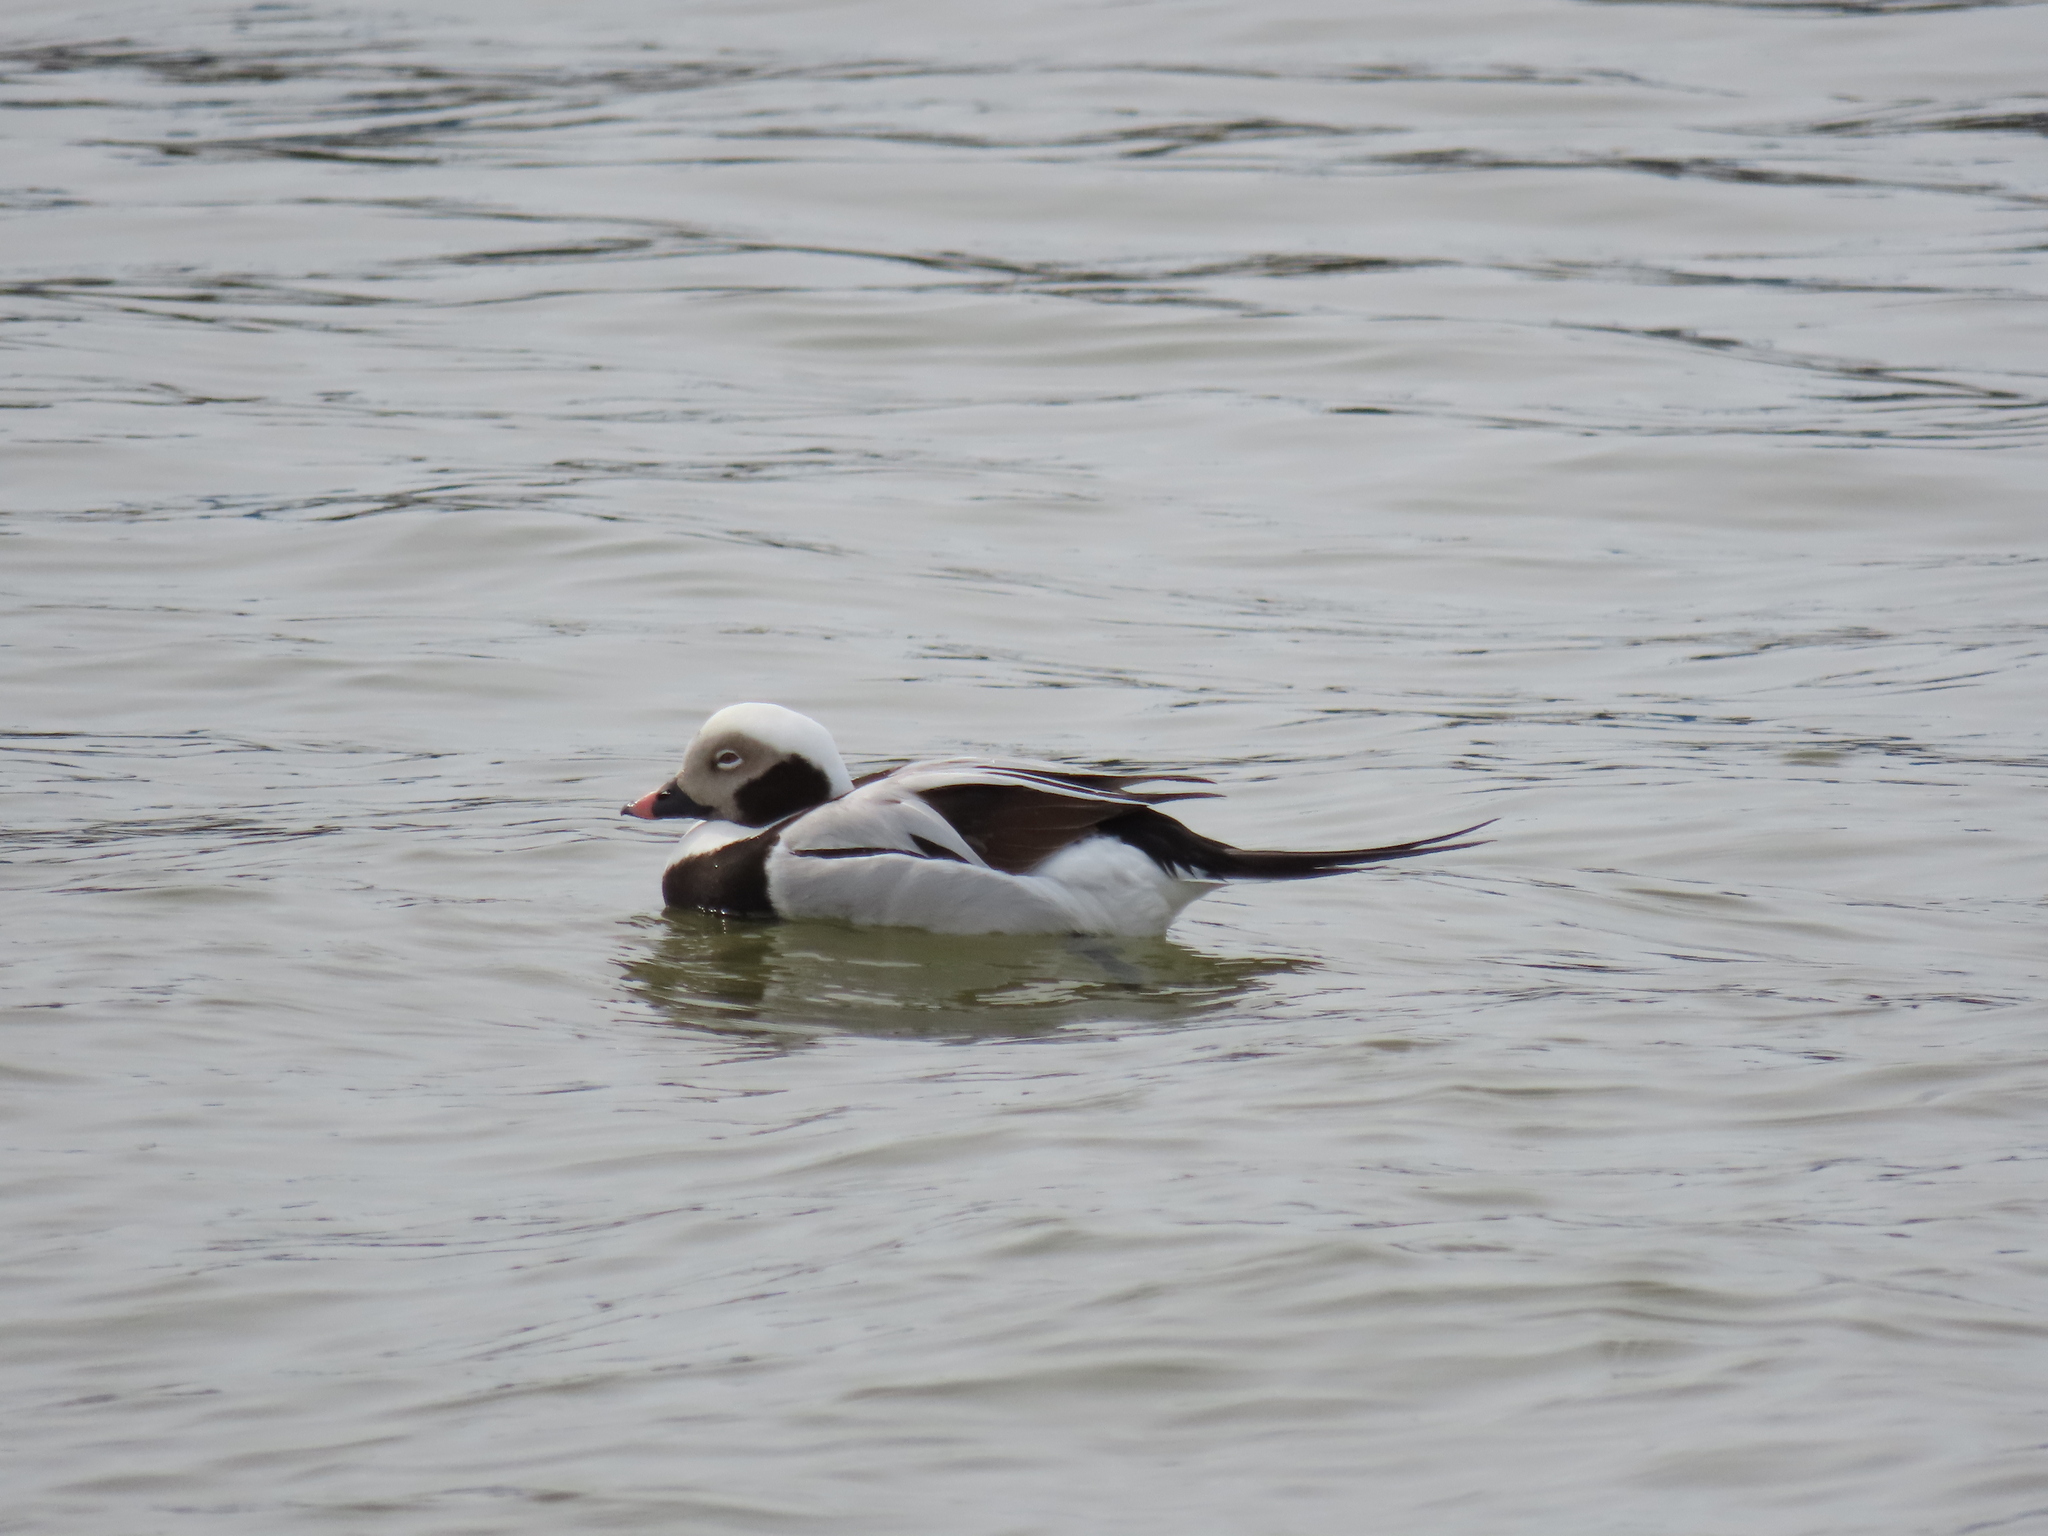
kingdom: Animalia
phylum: Chordata
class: Aves
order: Anseriformes
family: Anatidae
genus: Clangula
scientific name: Clangula hyemalis
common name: Long-tailed duck
